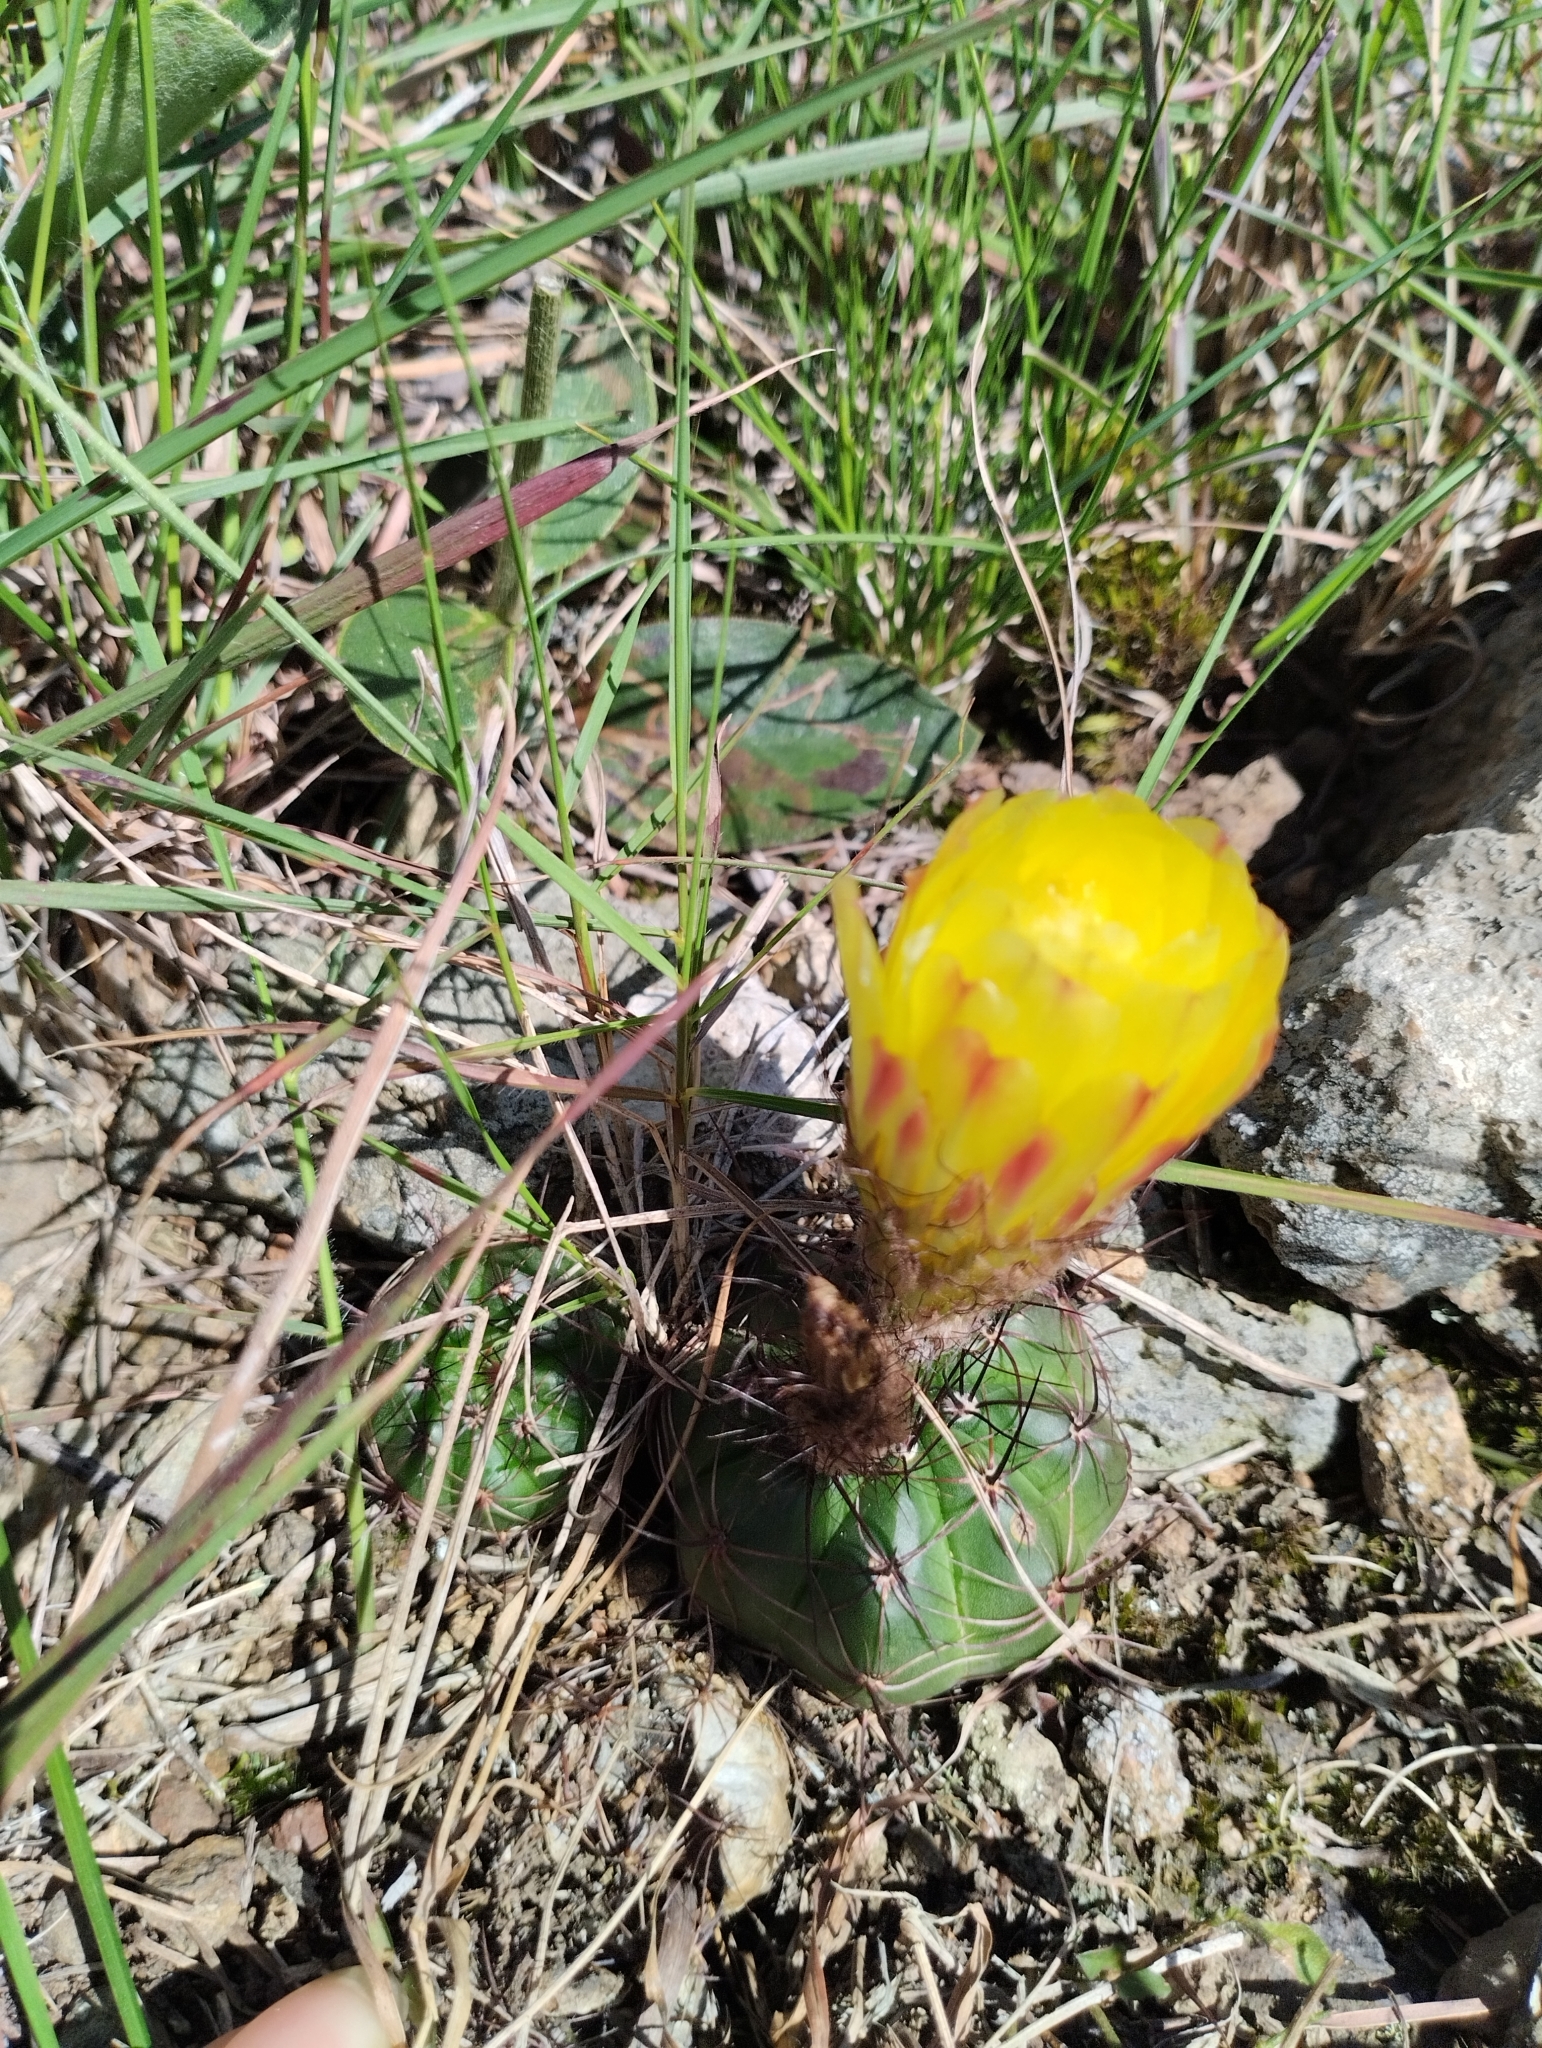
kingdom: Plantae
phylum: Tracheophyta
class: Magnoliopsida
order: Caryophyllales
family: Cactaceae
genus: Parodia
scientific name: Parodia ottonis
